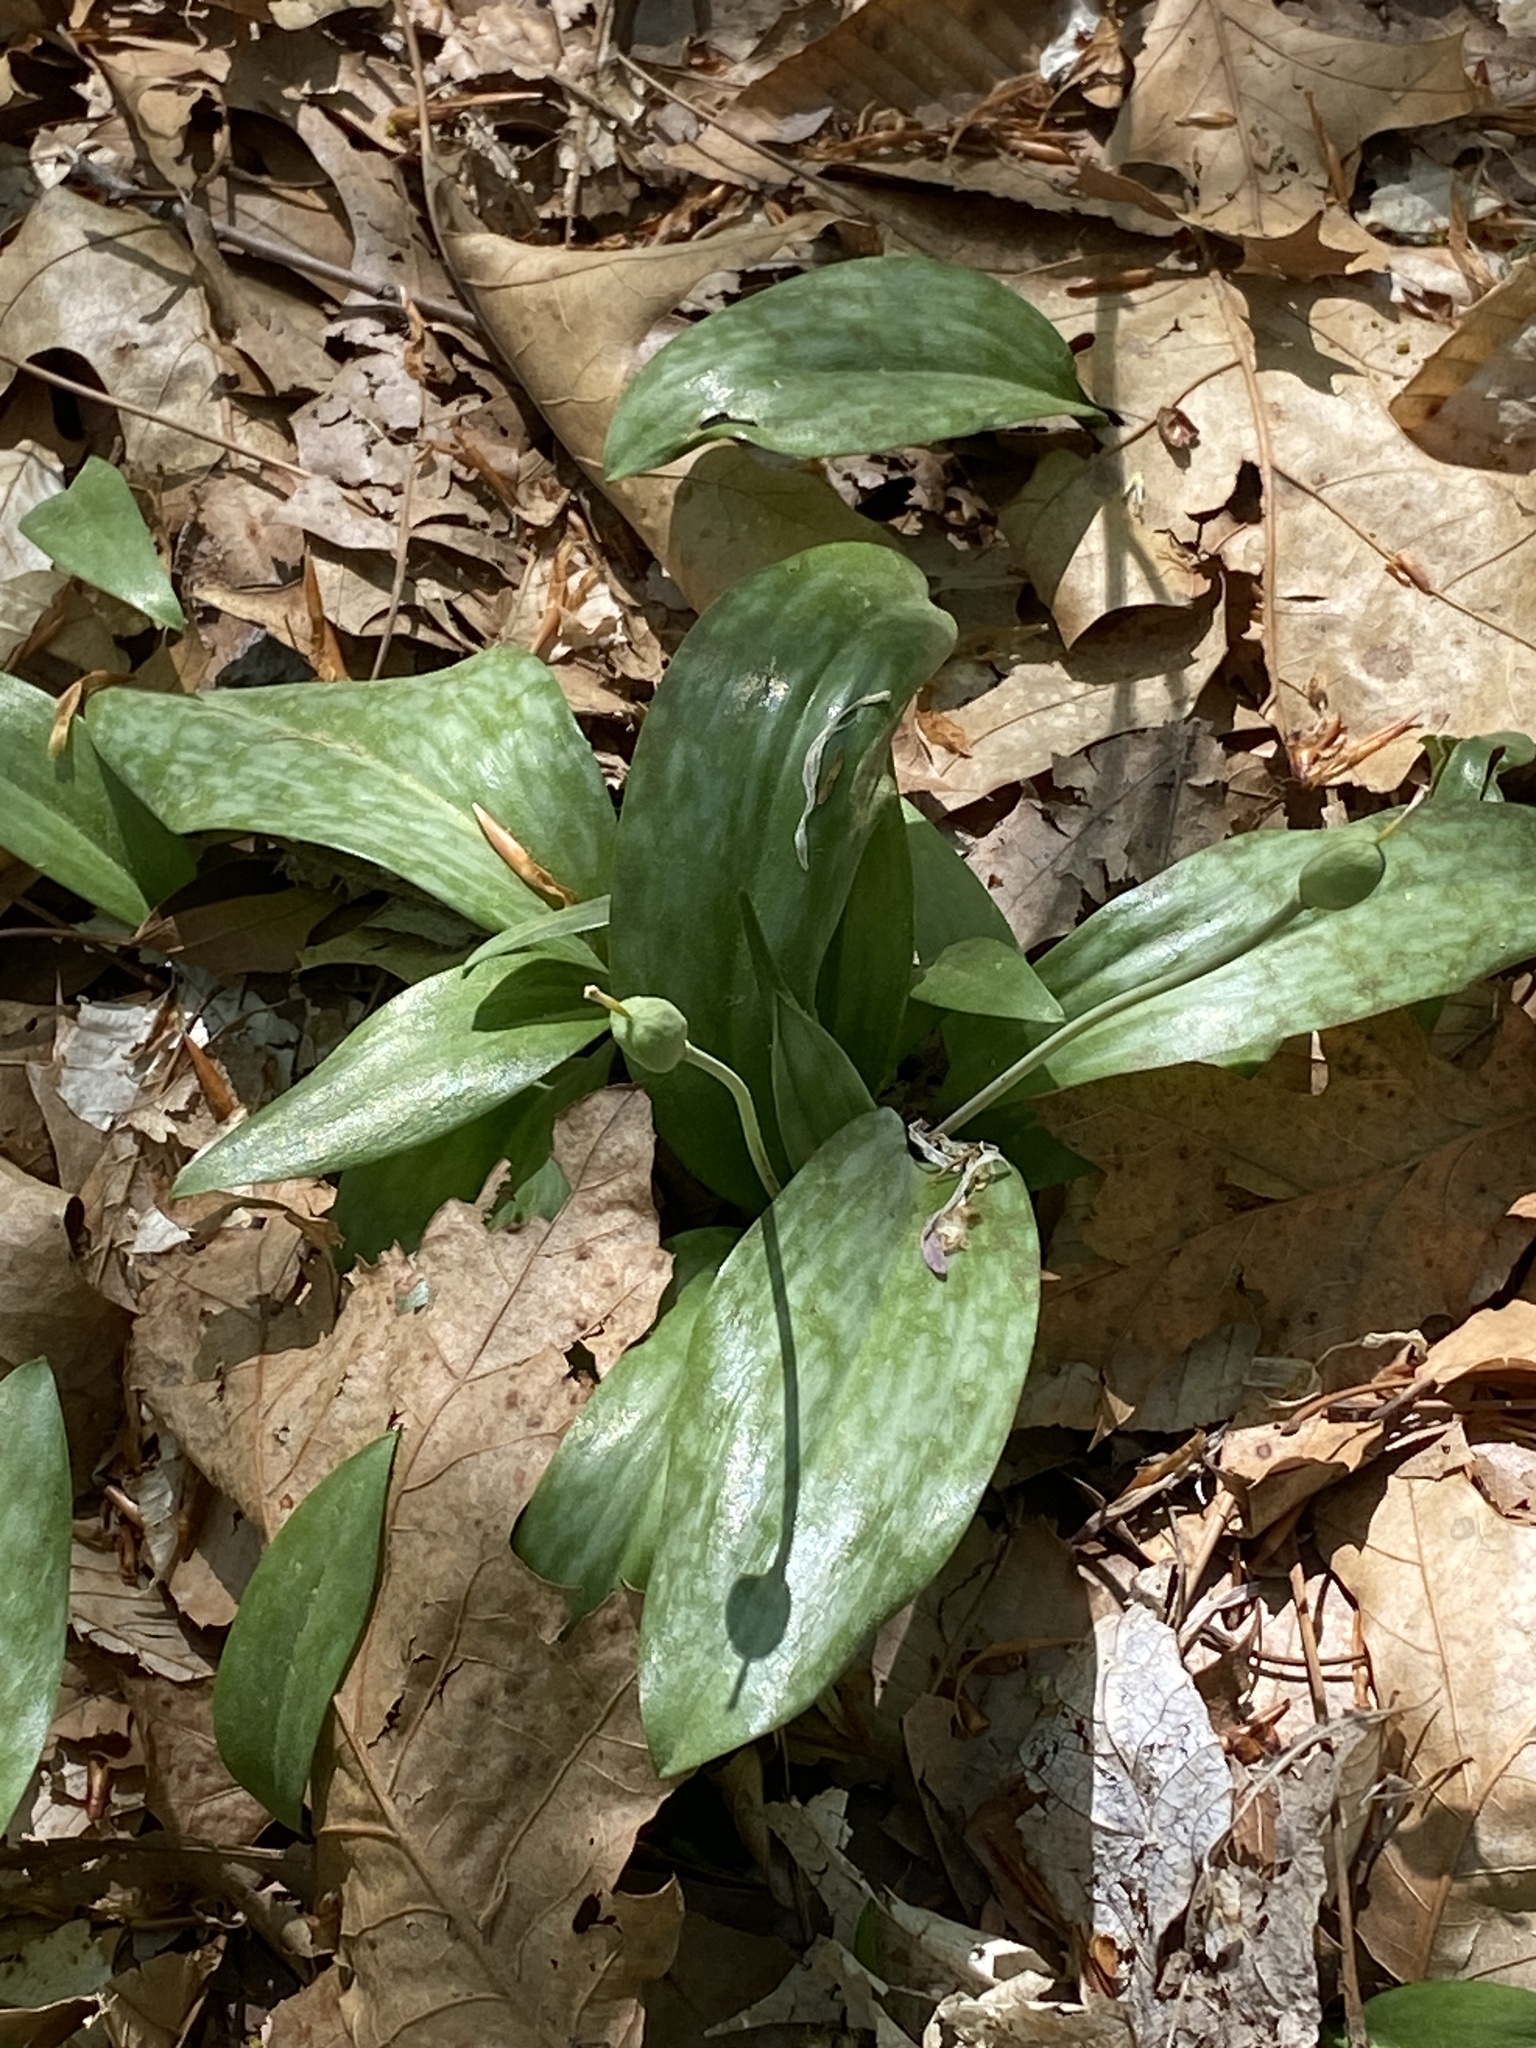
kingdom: Plantae
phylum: Tracheophyta
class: Liliopsida
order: Liliales
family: Liliaceae
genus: Erythronium
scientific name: Erythronium americanum
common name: Yellow adder's-tongue
